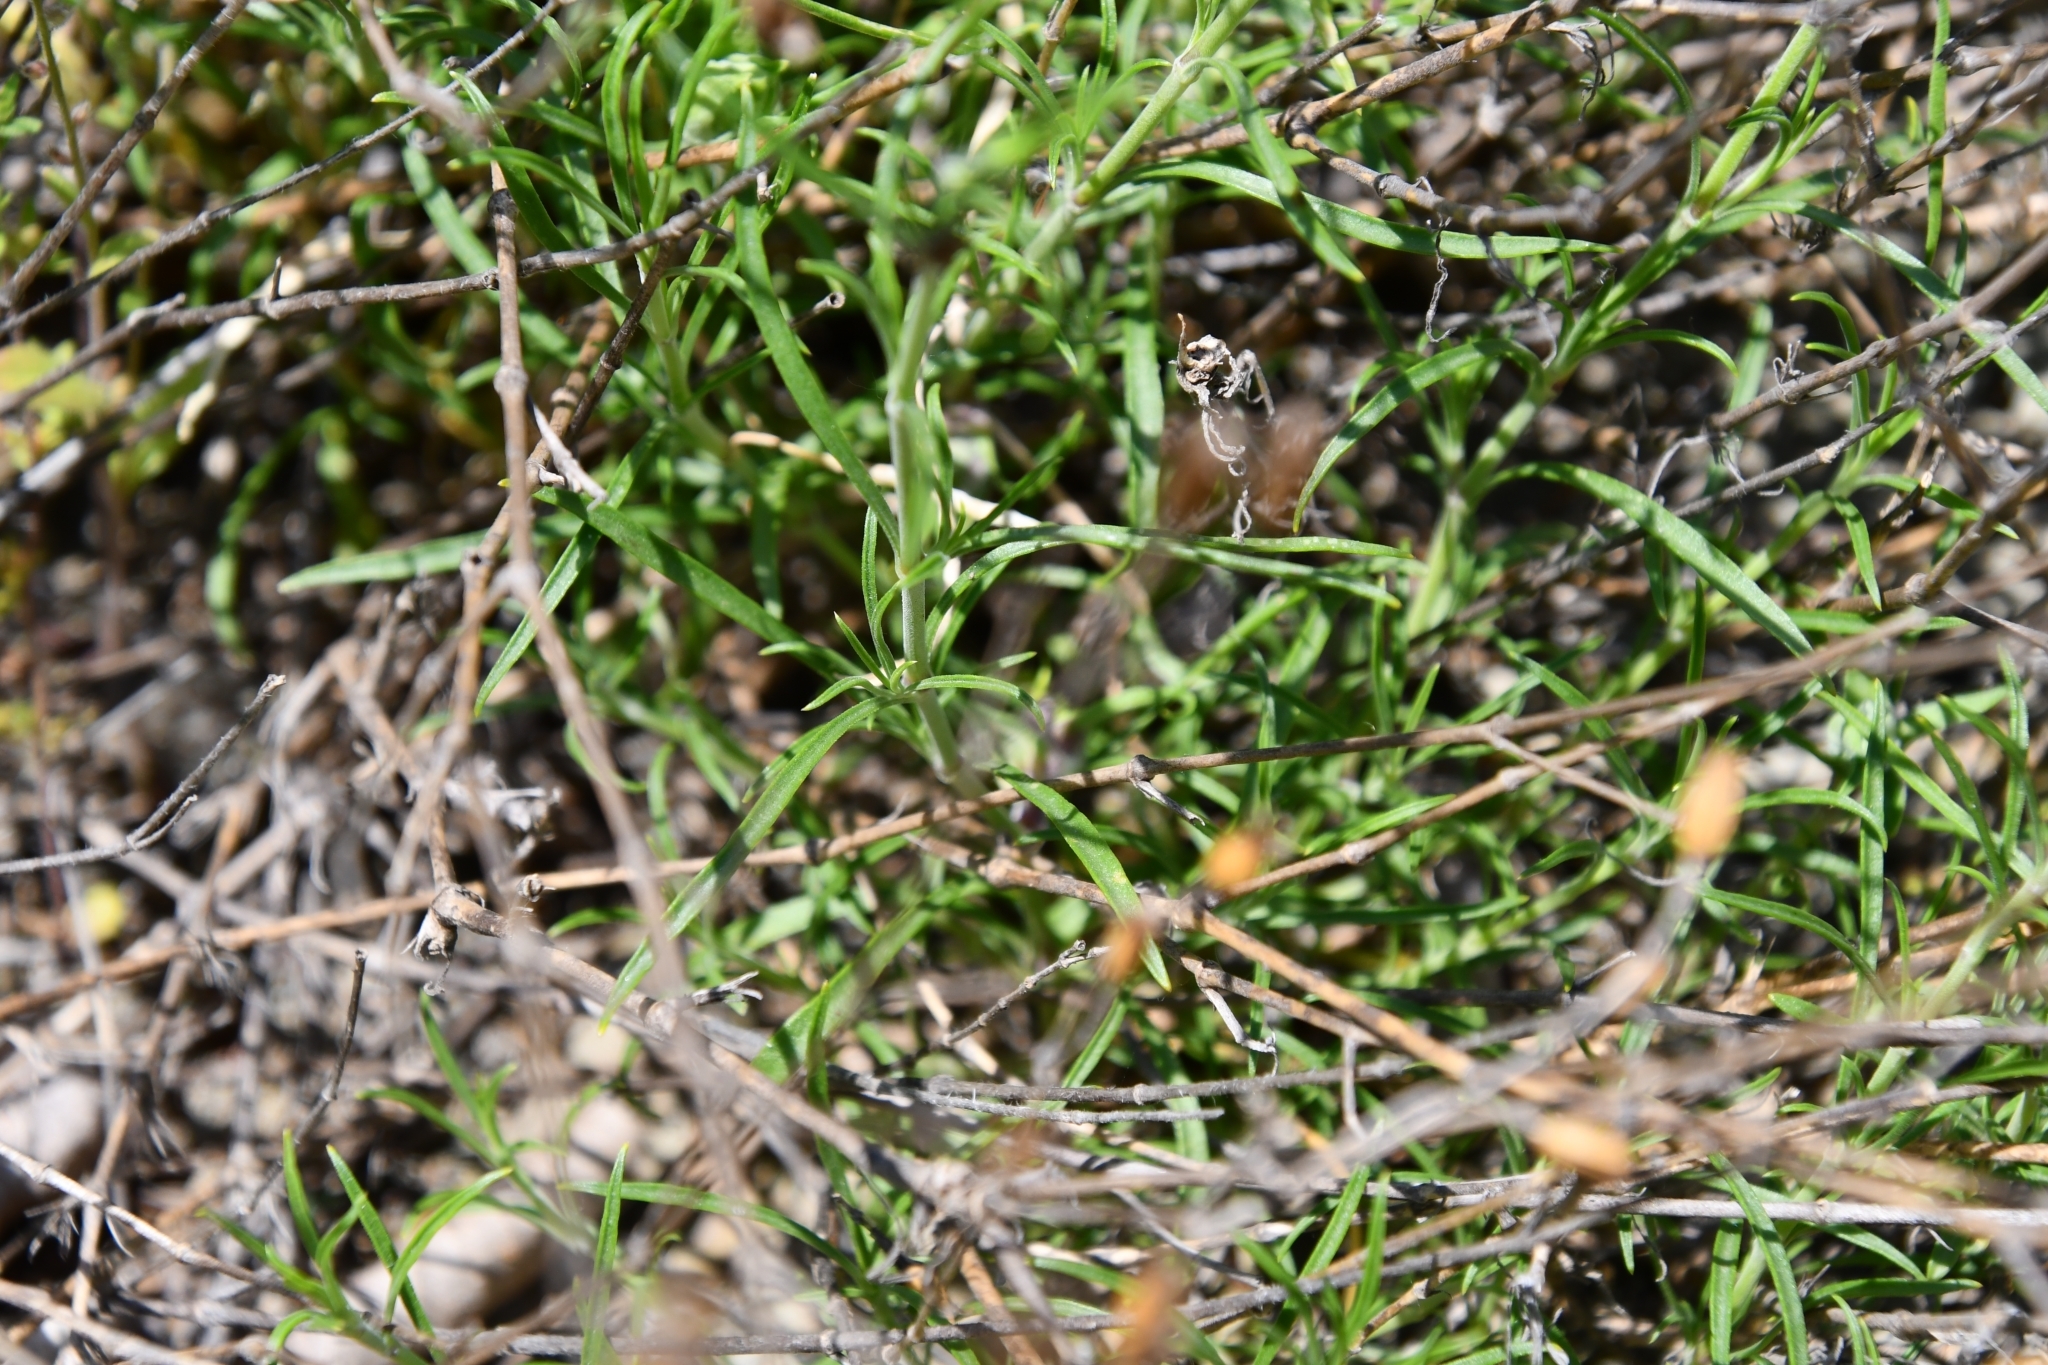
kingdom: Plantae
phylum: Tracheophyta
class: Magnoliopsida
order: Caryophyllales
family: Caryophyllaceae
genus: Silene
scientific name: Silene supina
